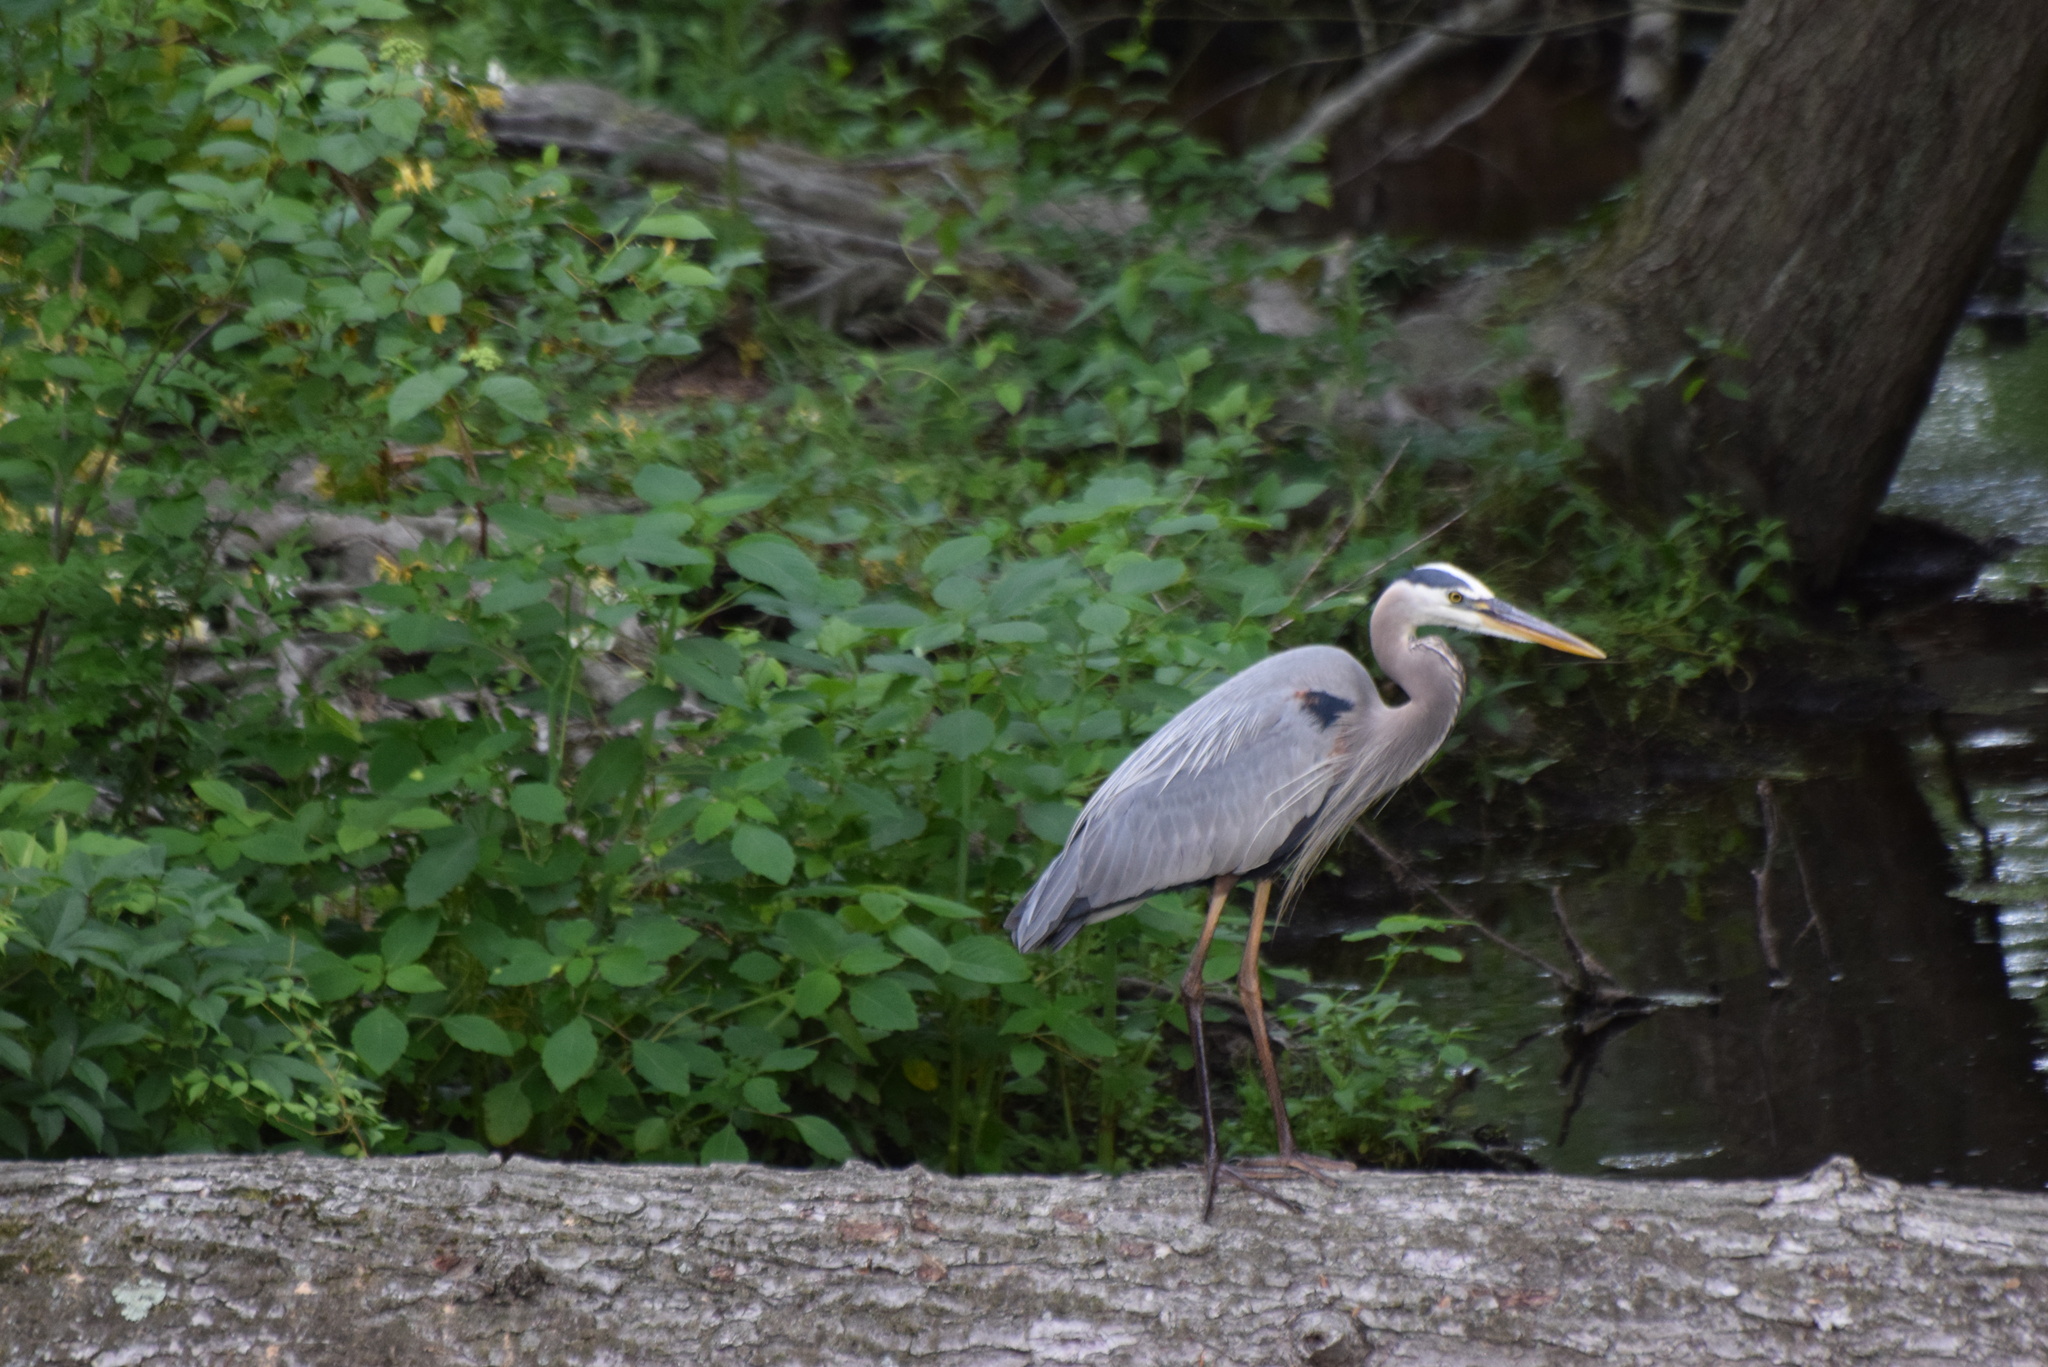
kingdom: Animalia
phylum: Chordata
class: Aves
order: Pelecaniformes
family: Ardeidae
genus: Ardea
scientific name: Ardea herodias
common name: Great blue heron
